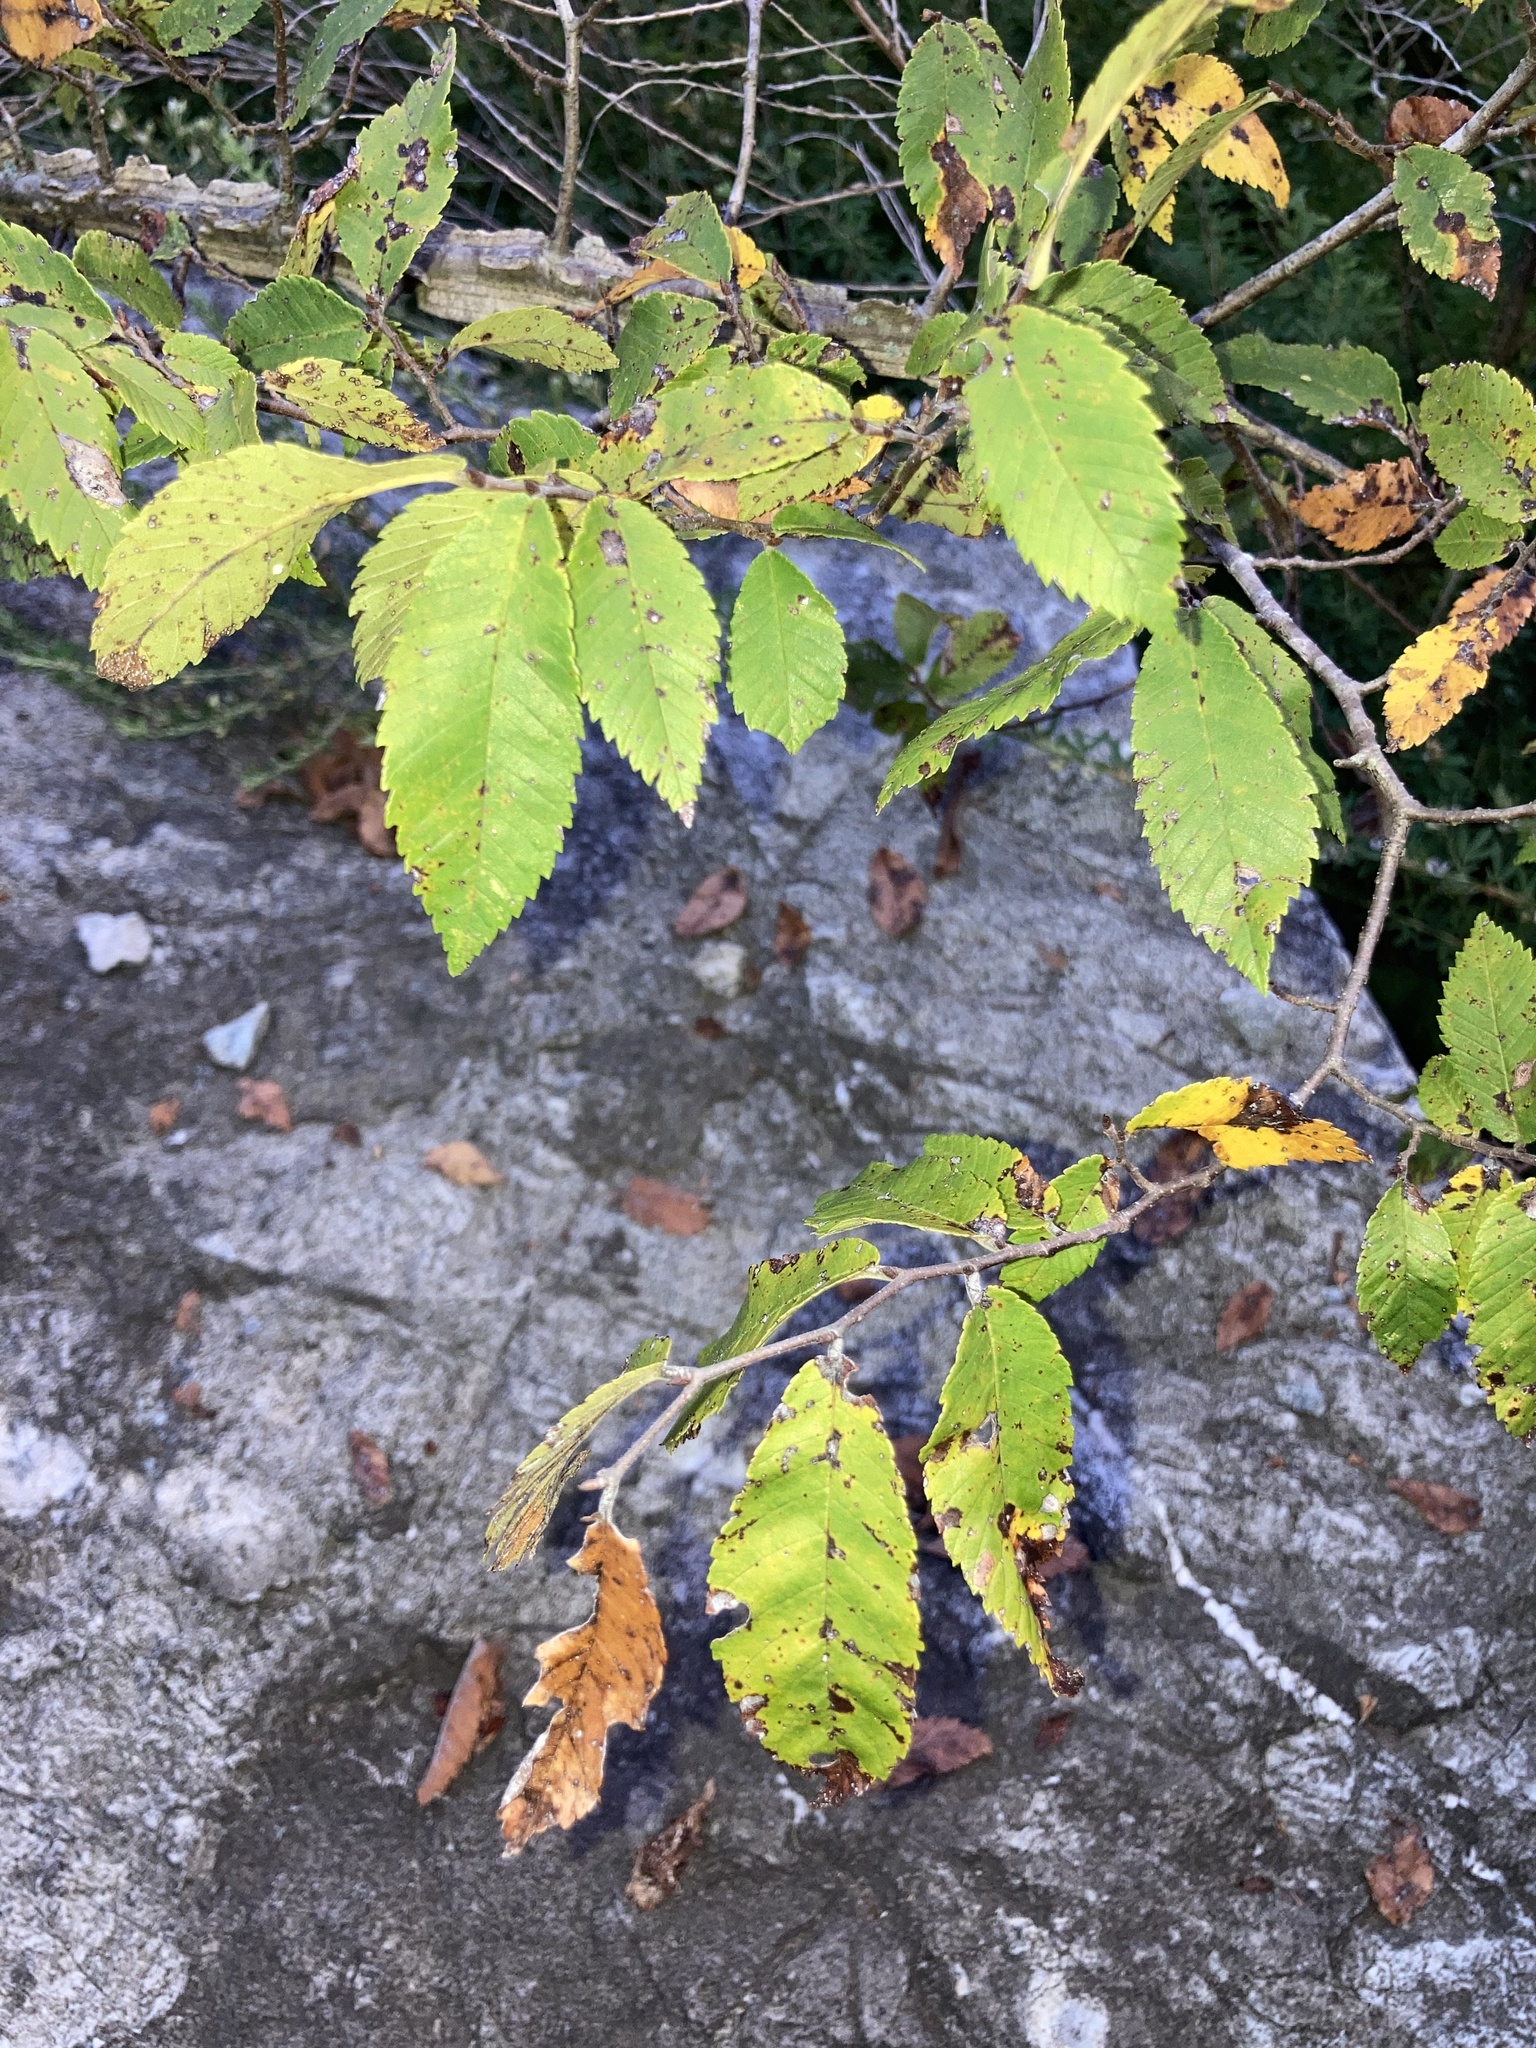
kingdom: Plantae
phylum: Tracheophyta
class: Magnoliopsida
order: Rosales
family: Ulmaceae
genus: Ulmus
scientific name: Ulmus alata
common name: Winged elm
